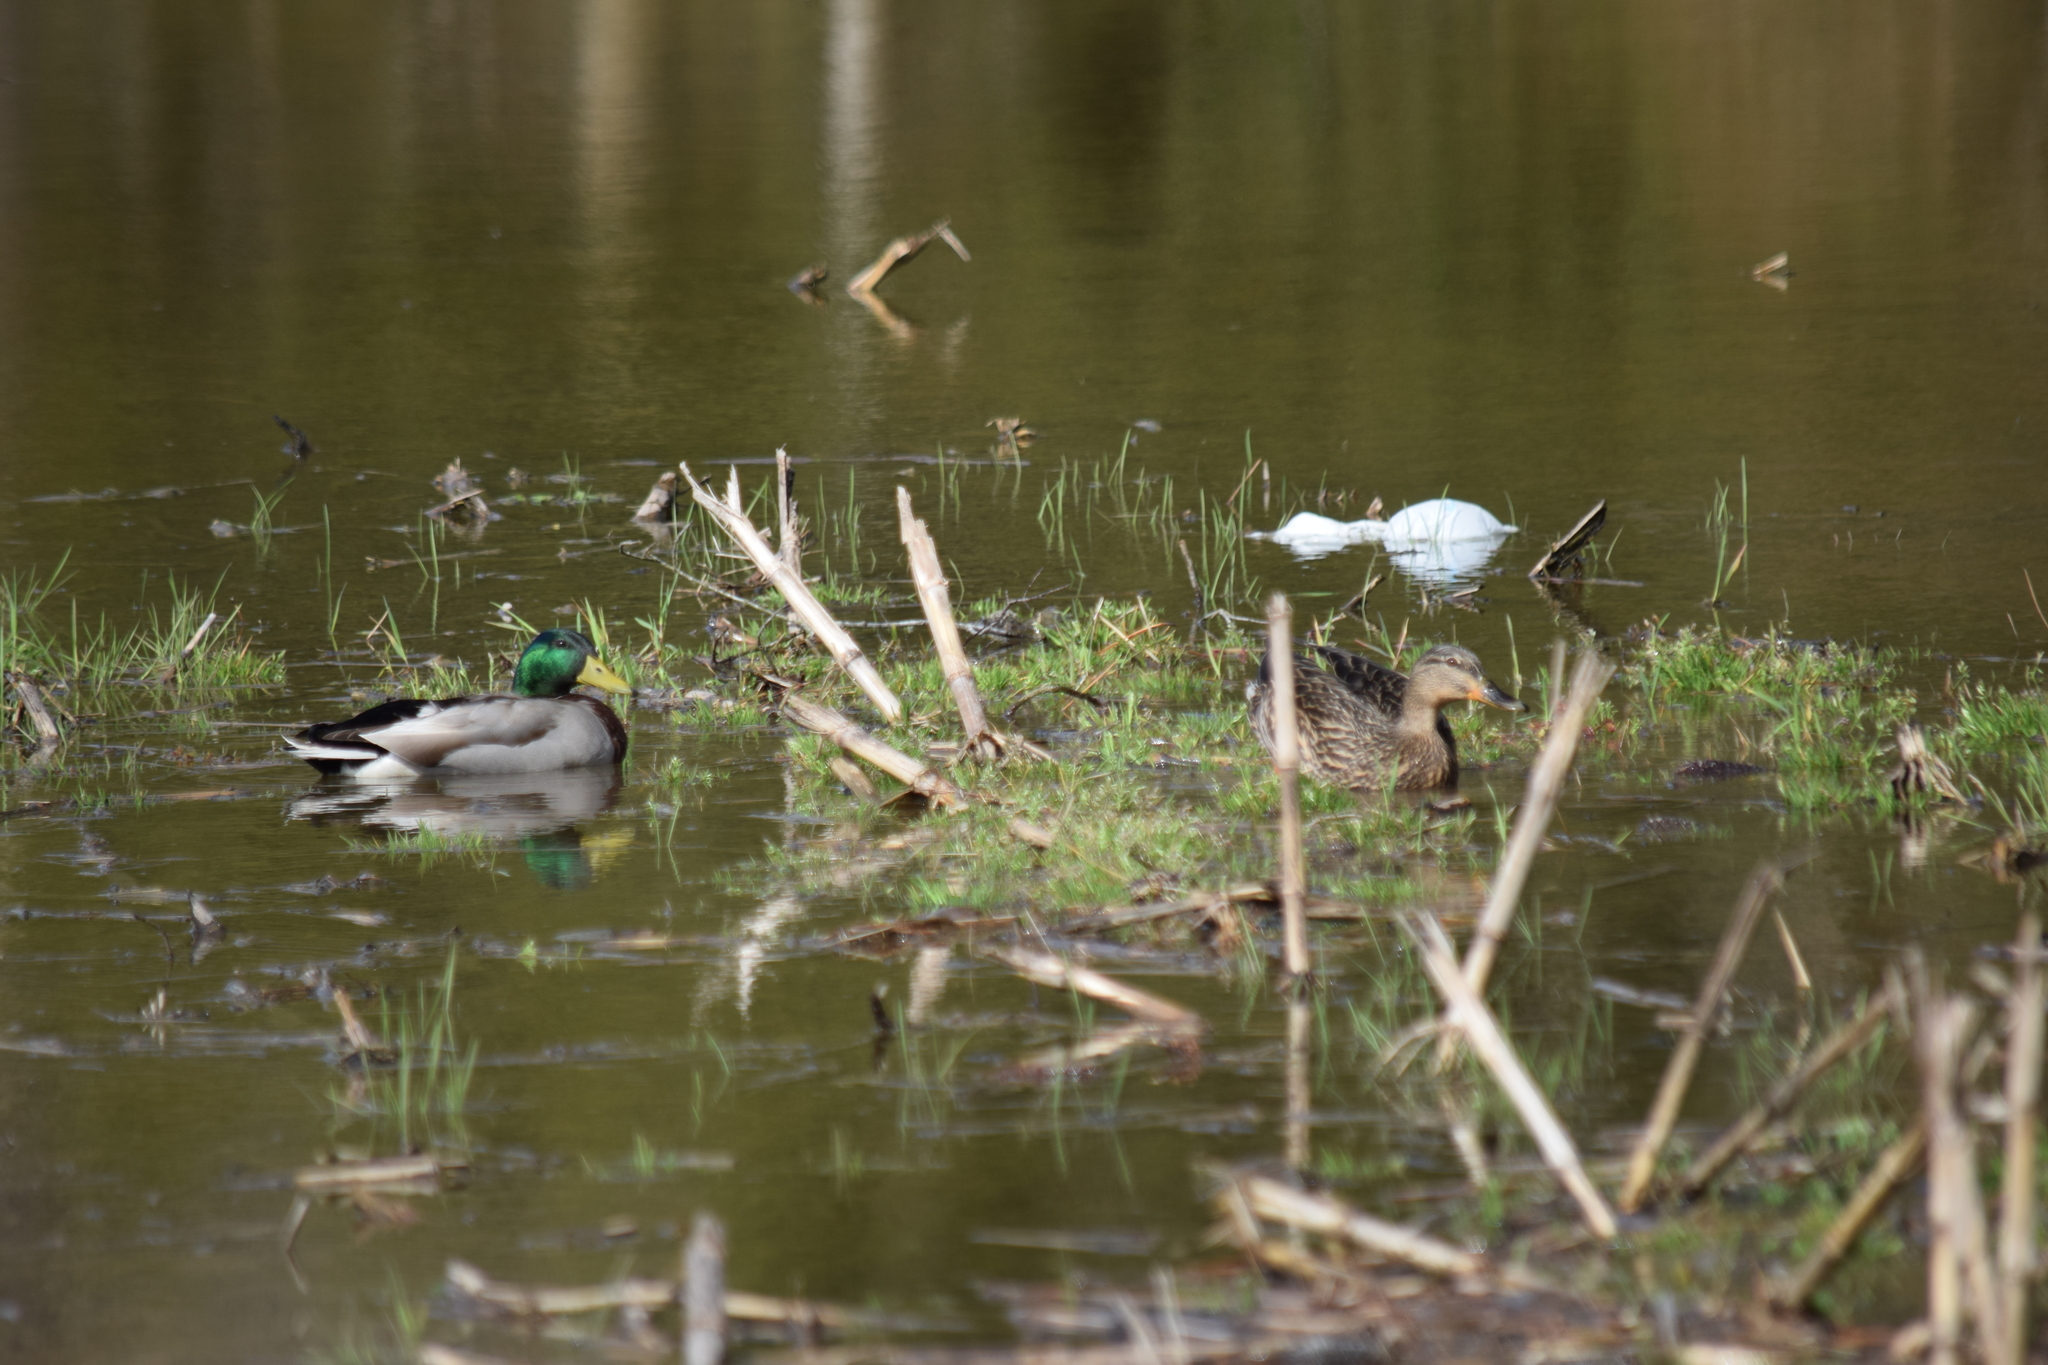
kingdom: Animalia
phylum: Chordata
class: Aves
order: Anseriformes
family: Anatidae
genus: Anas
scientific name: Anas platyrhynchos
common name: Mallard
